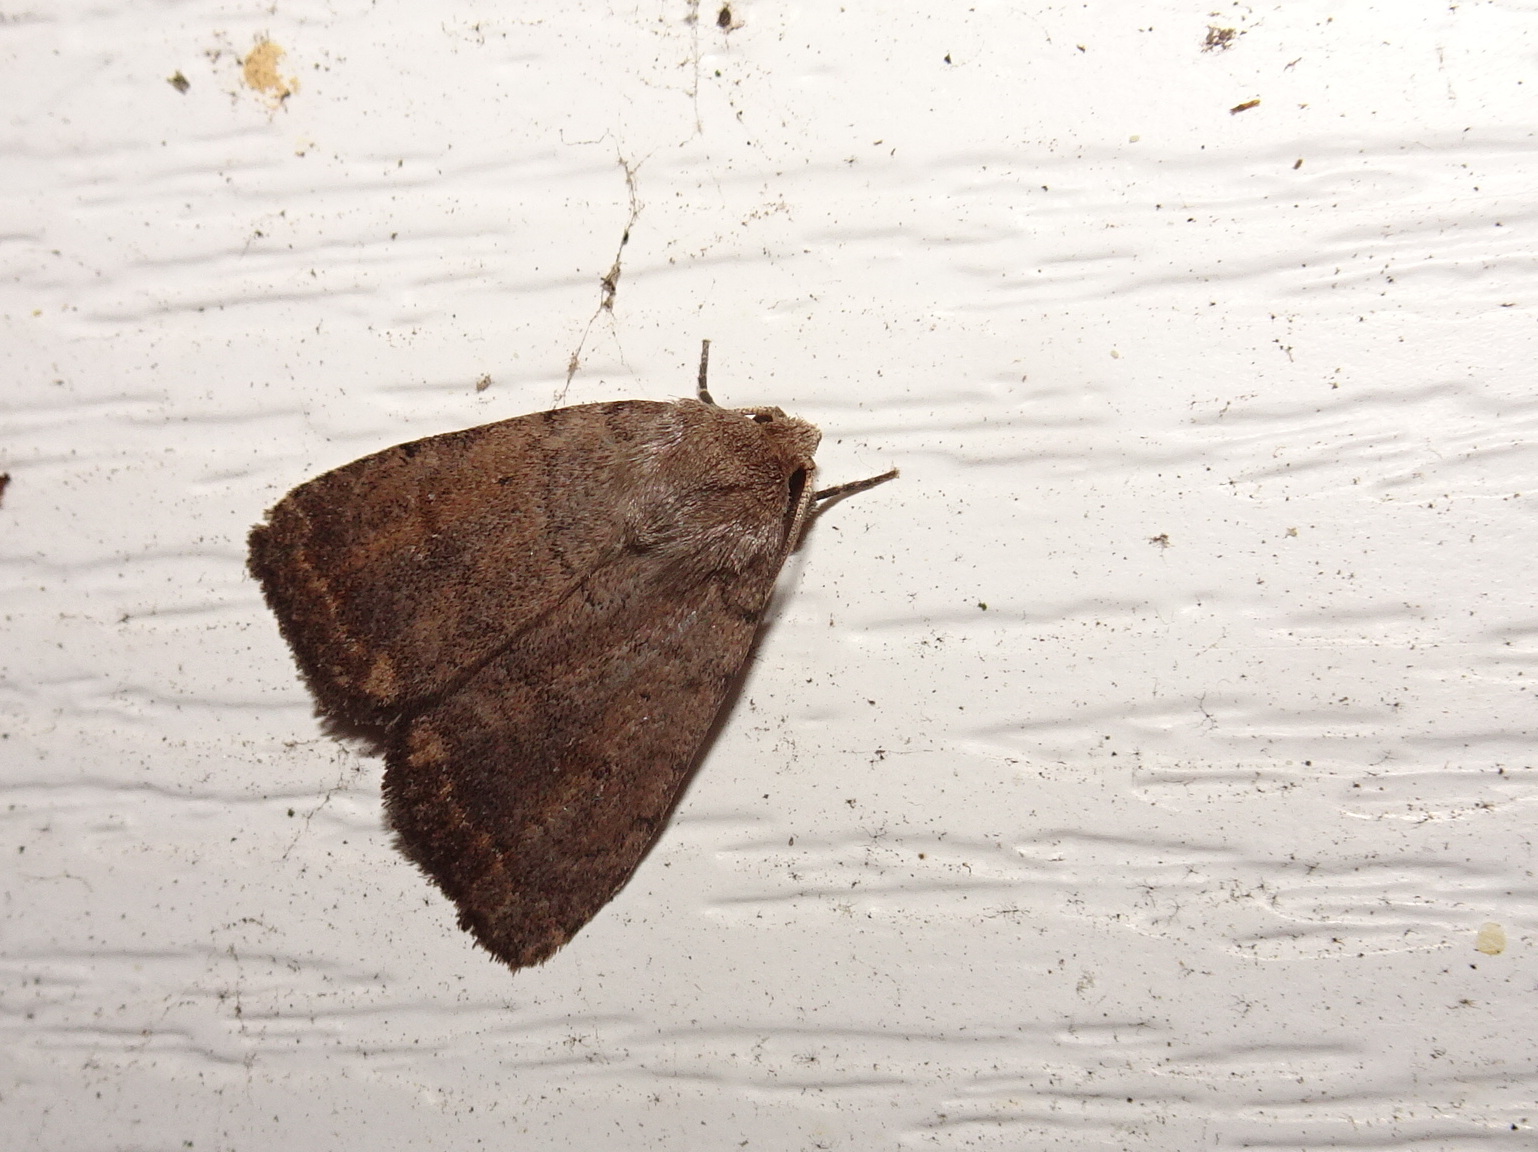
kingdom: Animalia
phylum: Arthropoda
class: Insecta
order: Lepidoptera
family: Noctuidae
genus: Athetis
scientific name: Athetis tarda
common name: Slowpoke moth
